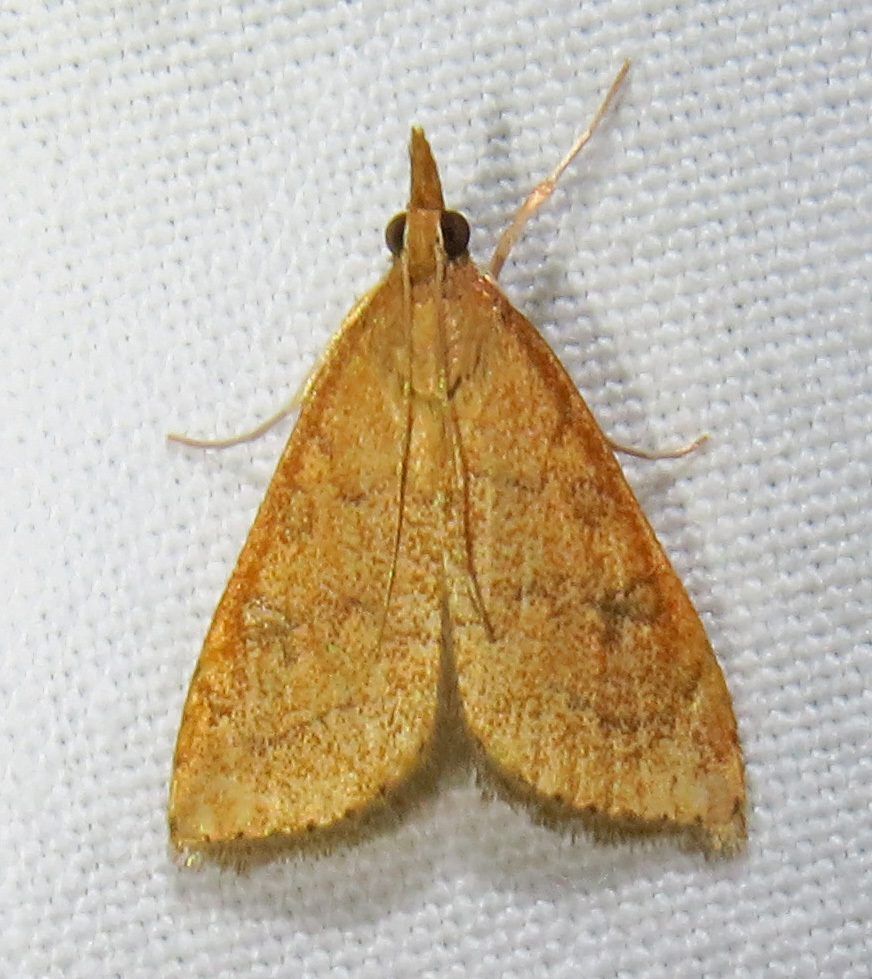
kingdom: Animalia
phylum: Arthropoda
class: Insecta
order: Lepidoptera
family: Crambidae
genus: Udea
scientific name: Udea rubigalis
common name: Celery leaftier moth
